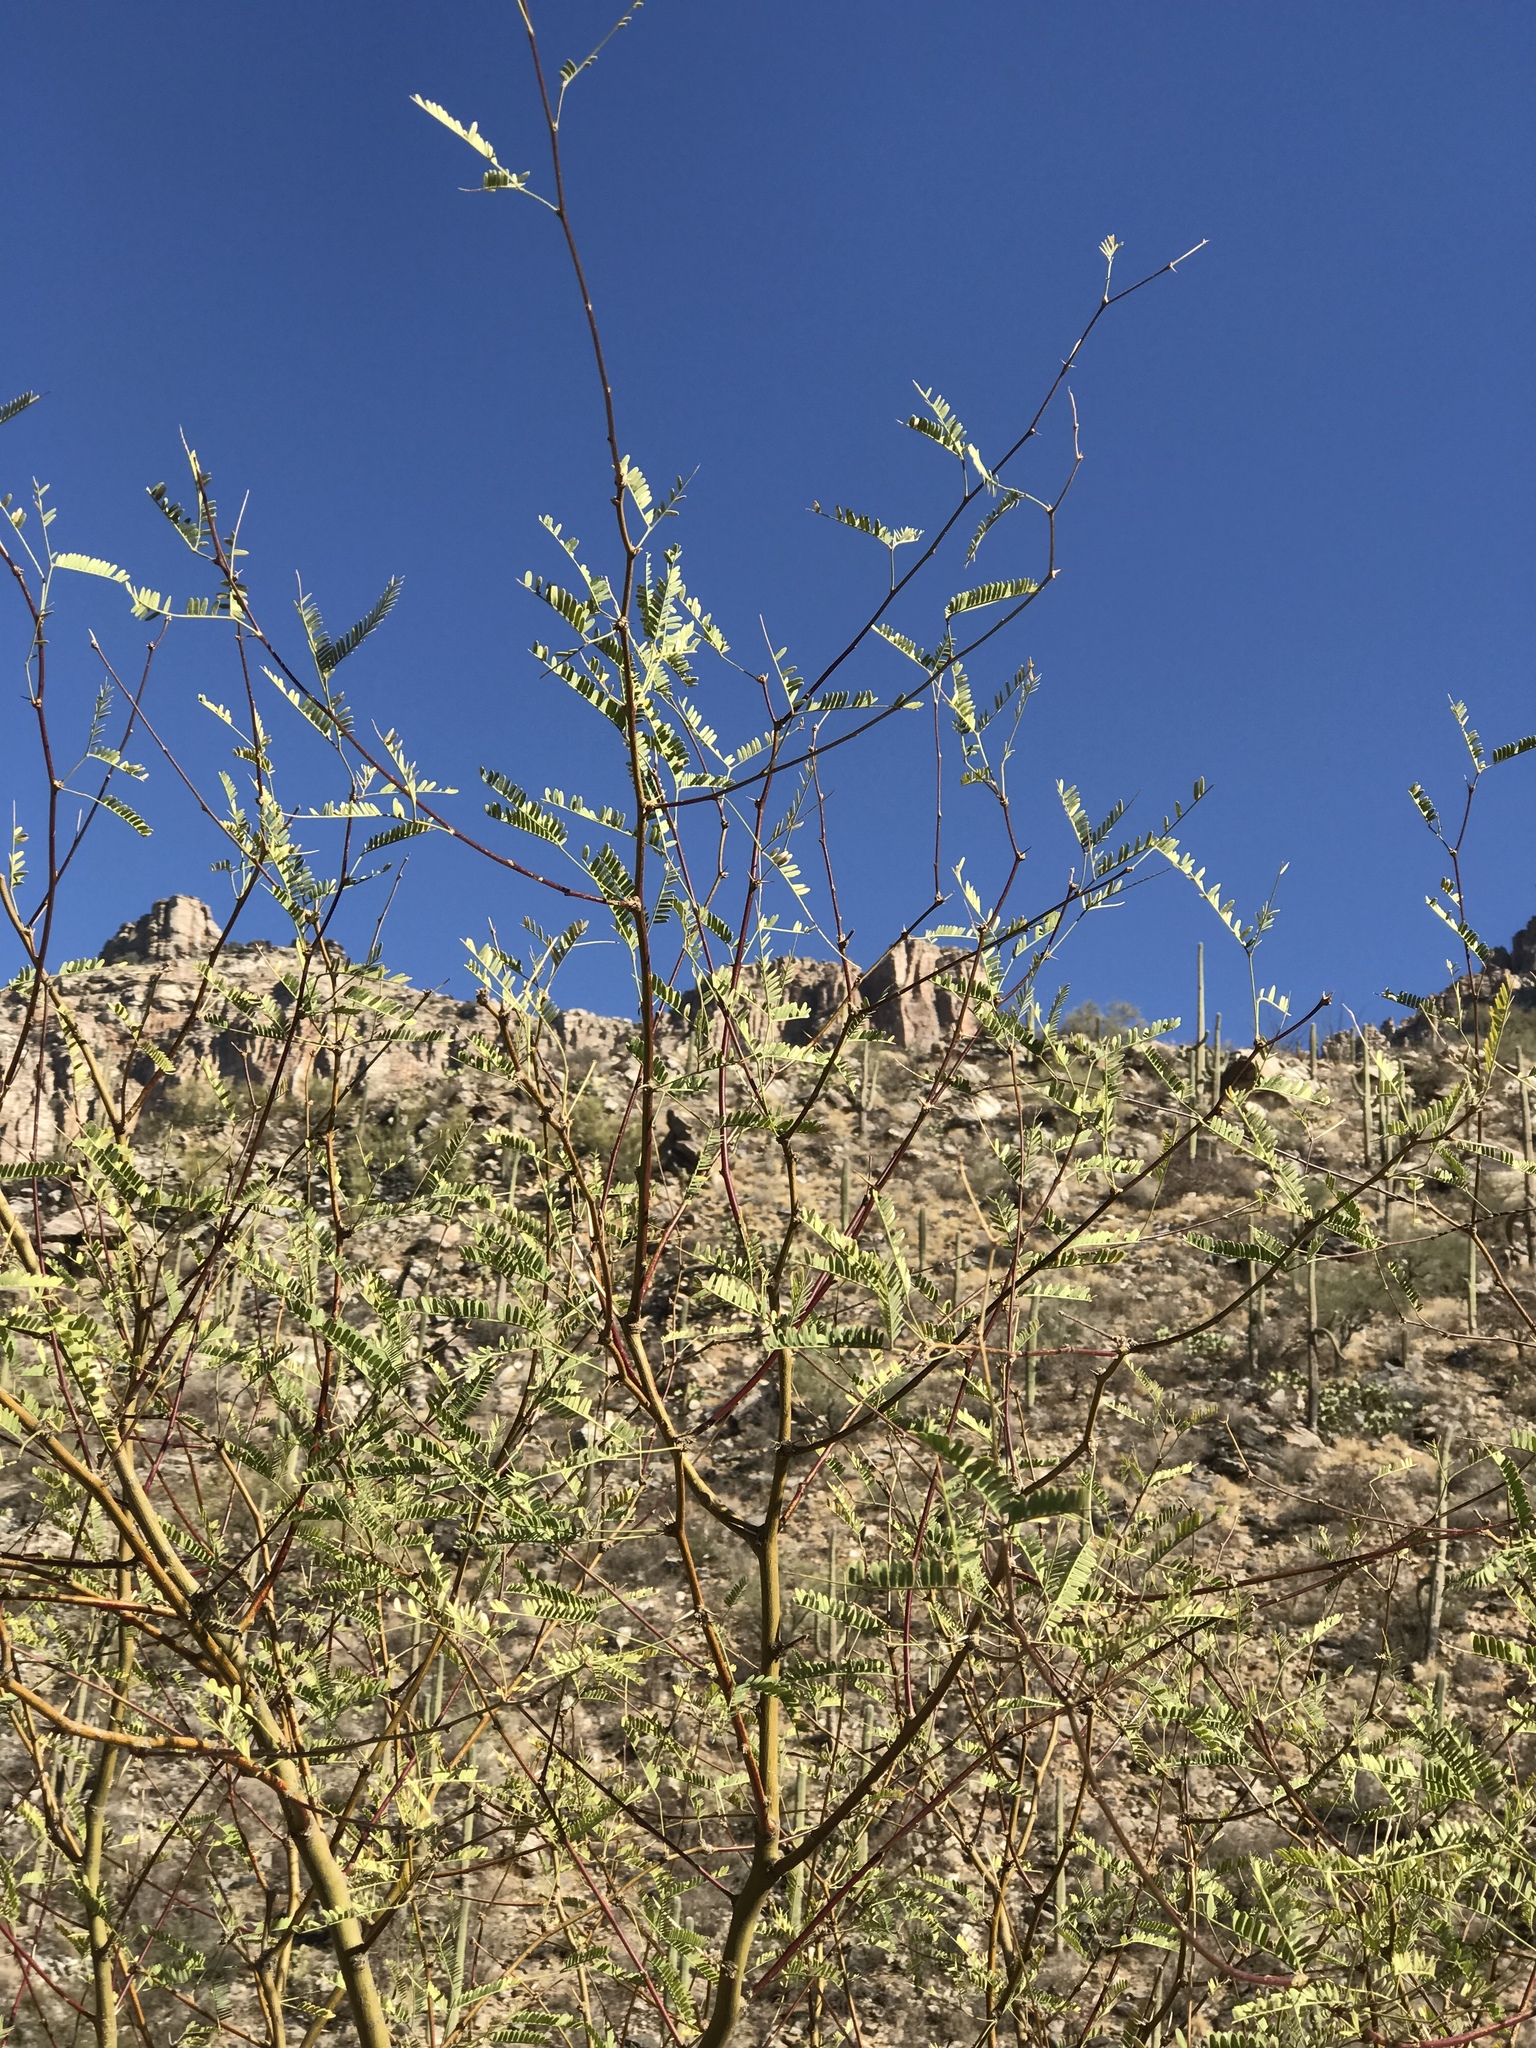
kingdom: Plantae
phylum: Tracheophyta
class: Magnoliopsida
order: Fabales
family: Fabaceae
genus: Prosopis
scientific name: Prosopis velutina
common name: Velvet mesquite
